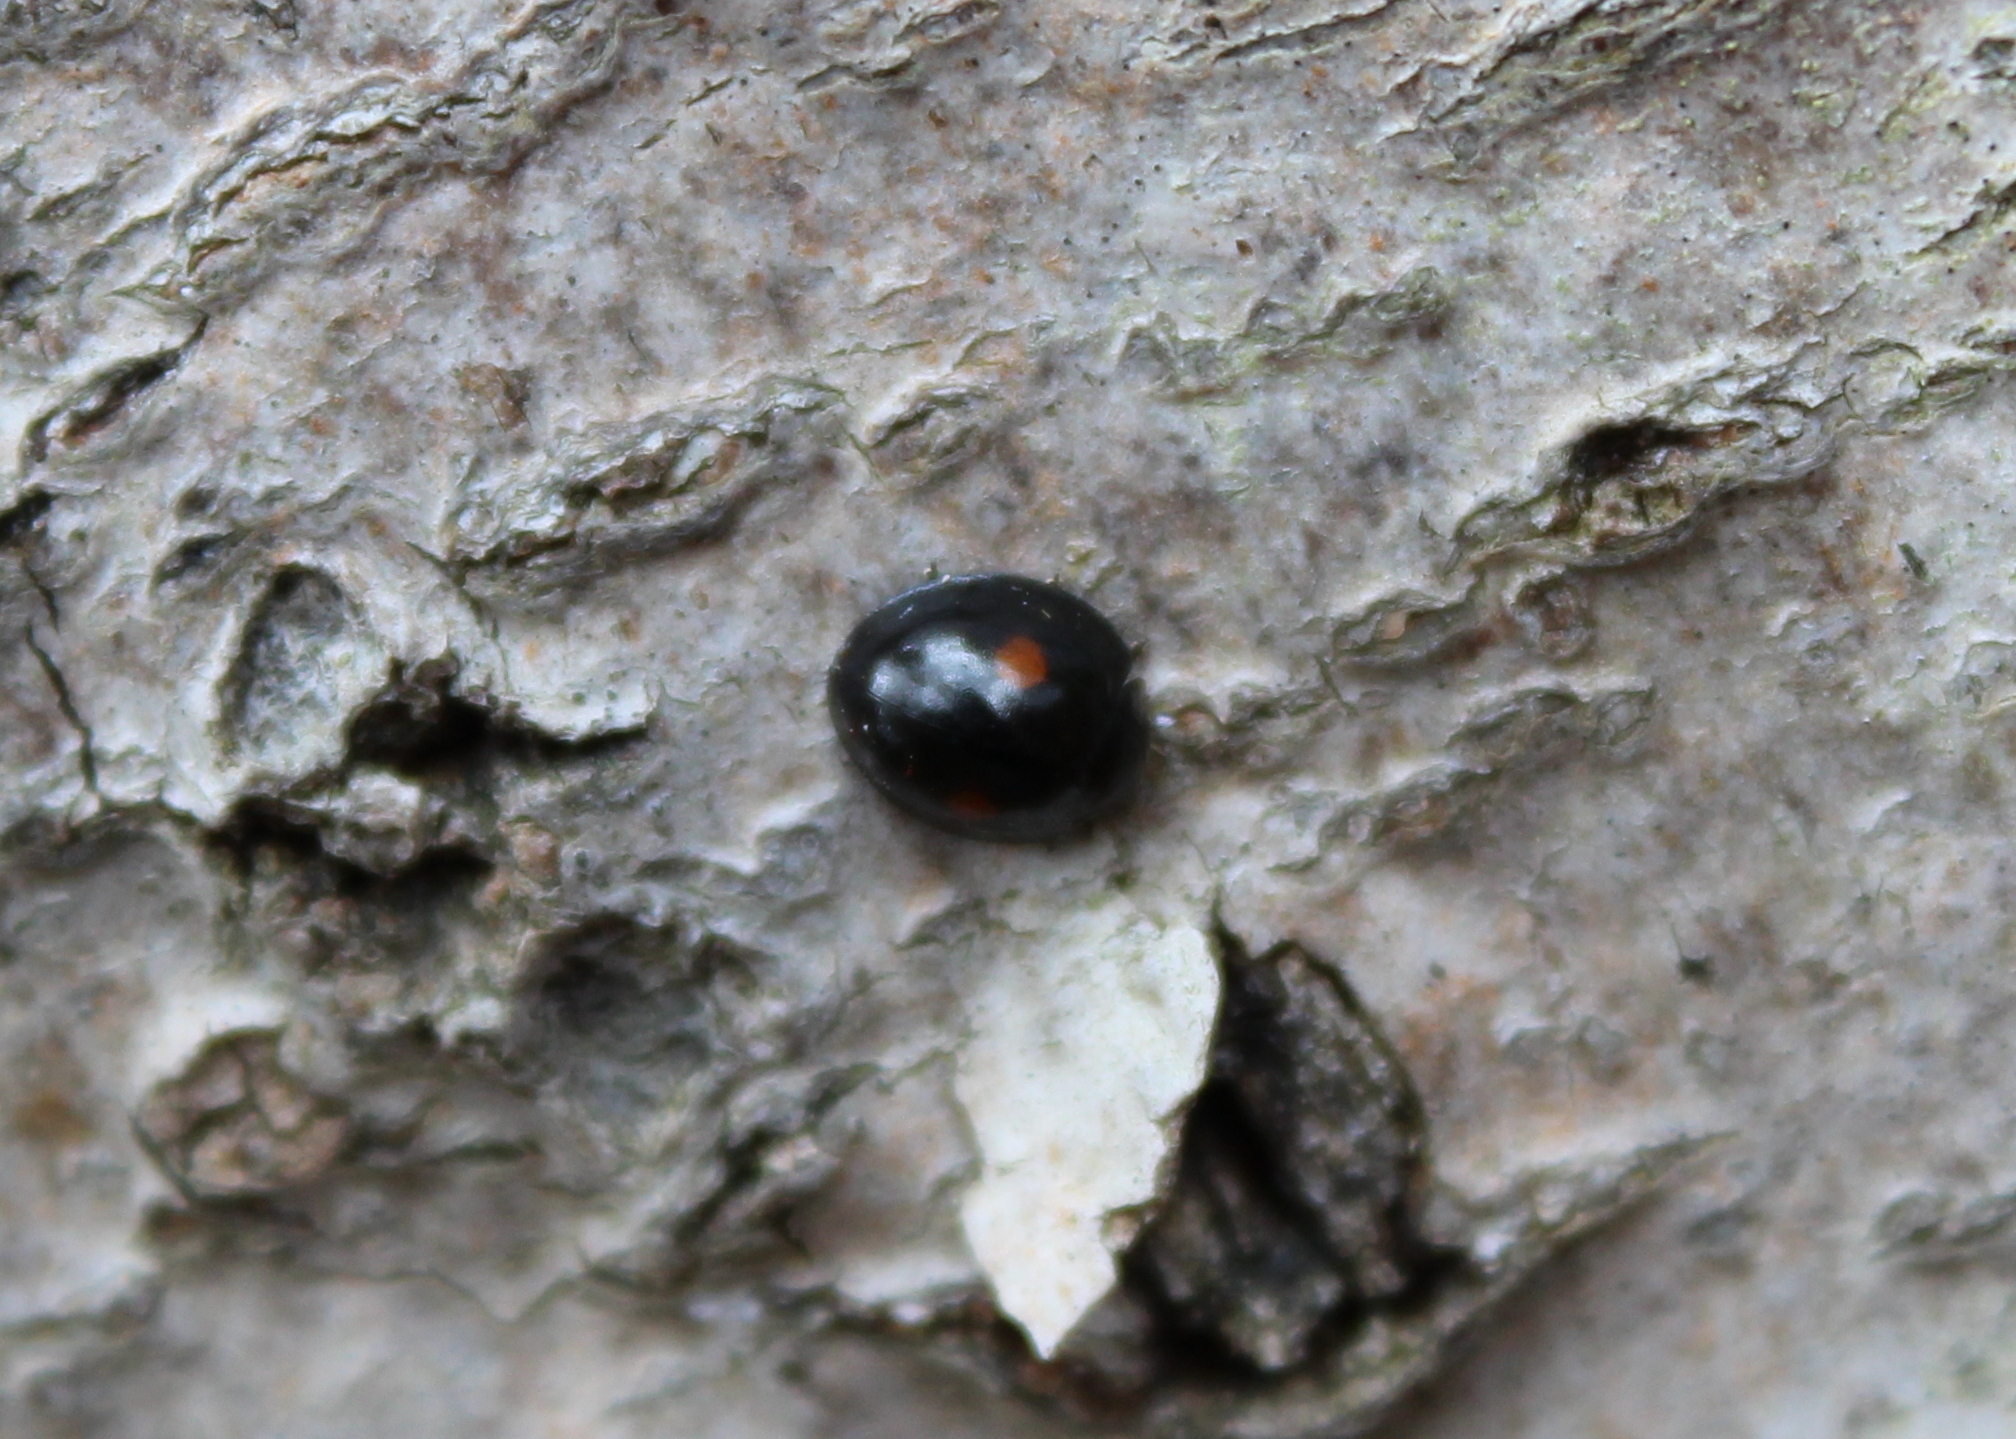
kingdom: Animalia
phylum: Arthropoda
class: Insecta
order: Coleoptera
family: Coccinellidae
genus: Chilocorus
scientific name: Chilocorus stigma
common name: Twicestabbed lady beetle
